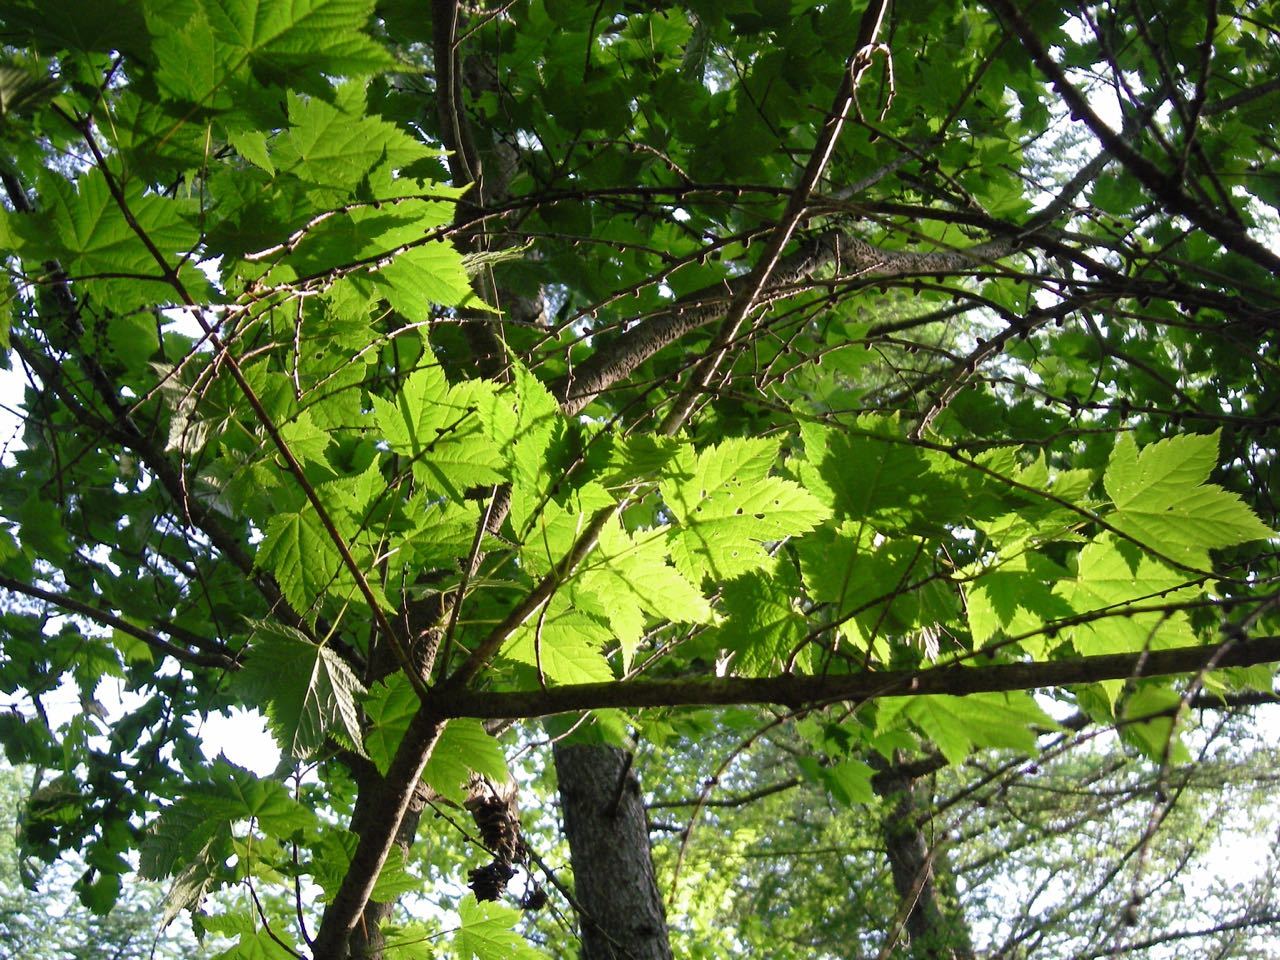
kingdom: Plantae
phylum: Tracheophyta
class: Magnoliopsida
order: Sapindales
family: Sapindaceae
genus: Acer
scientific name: Acer argutum
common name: Pointed-leaf maple
